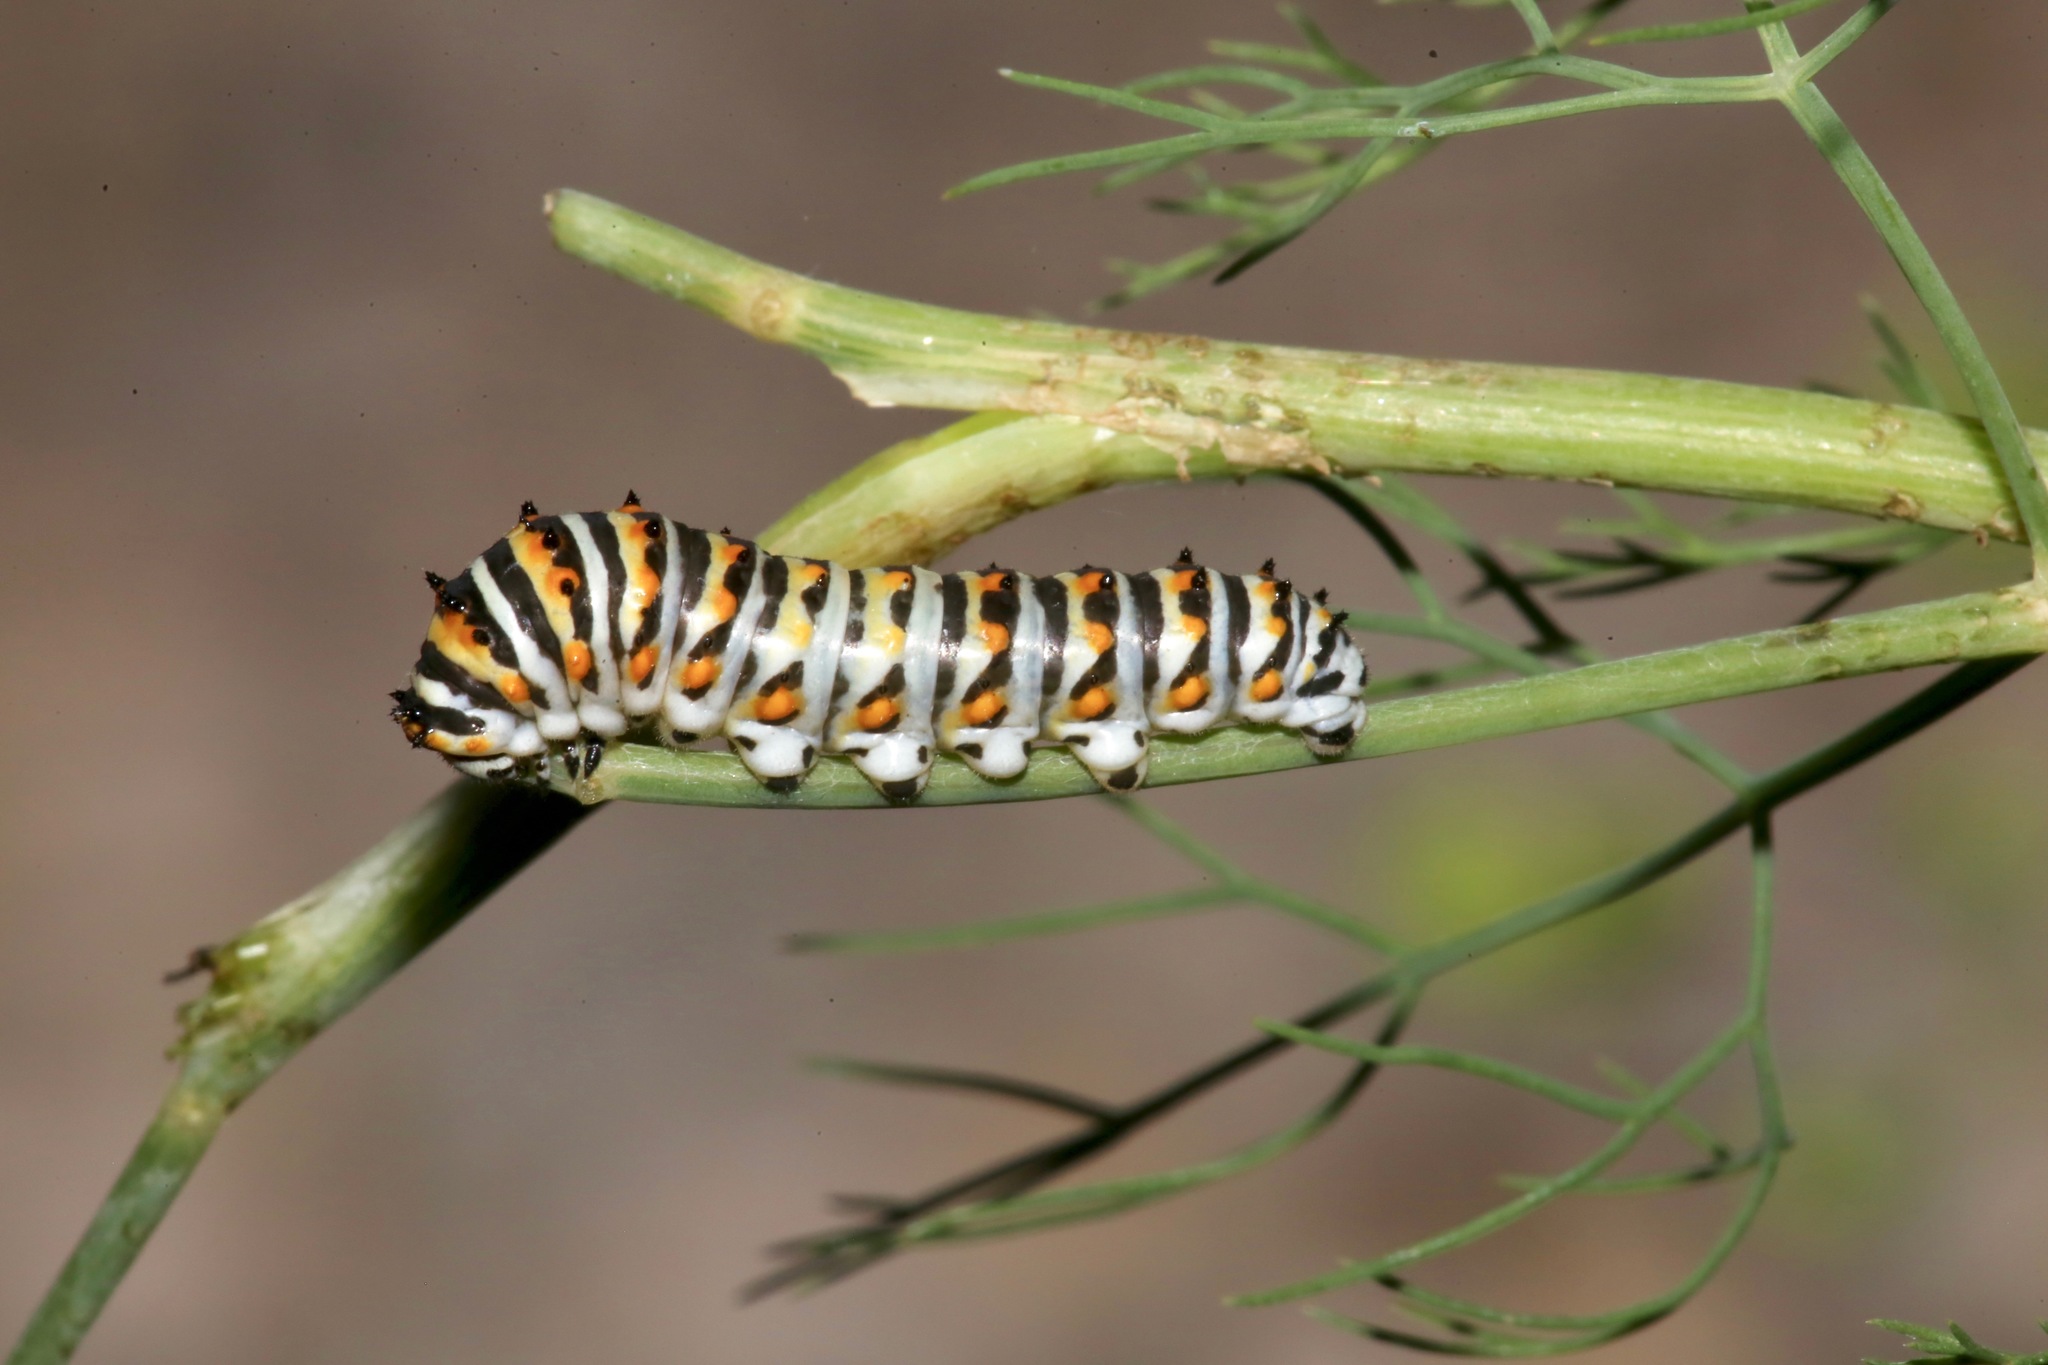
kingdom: Animalia
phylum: Arthropoda
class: Insecta
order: Lepidoptera
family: Papilionidae
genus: Papilio
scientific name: Papilio polyxenes
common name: Black swallowtail
